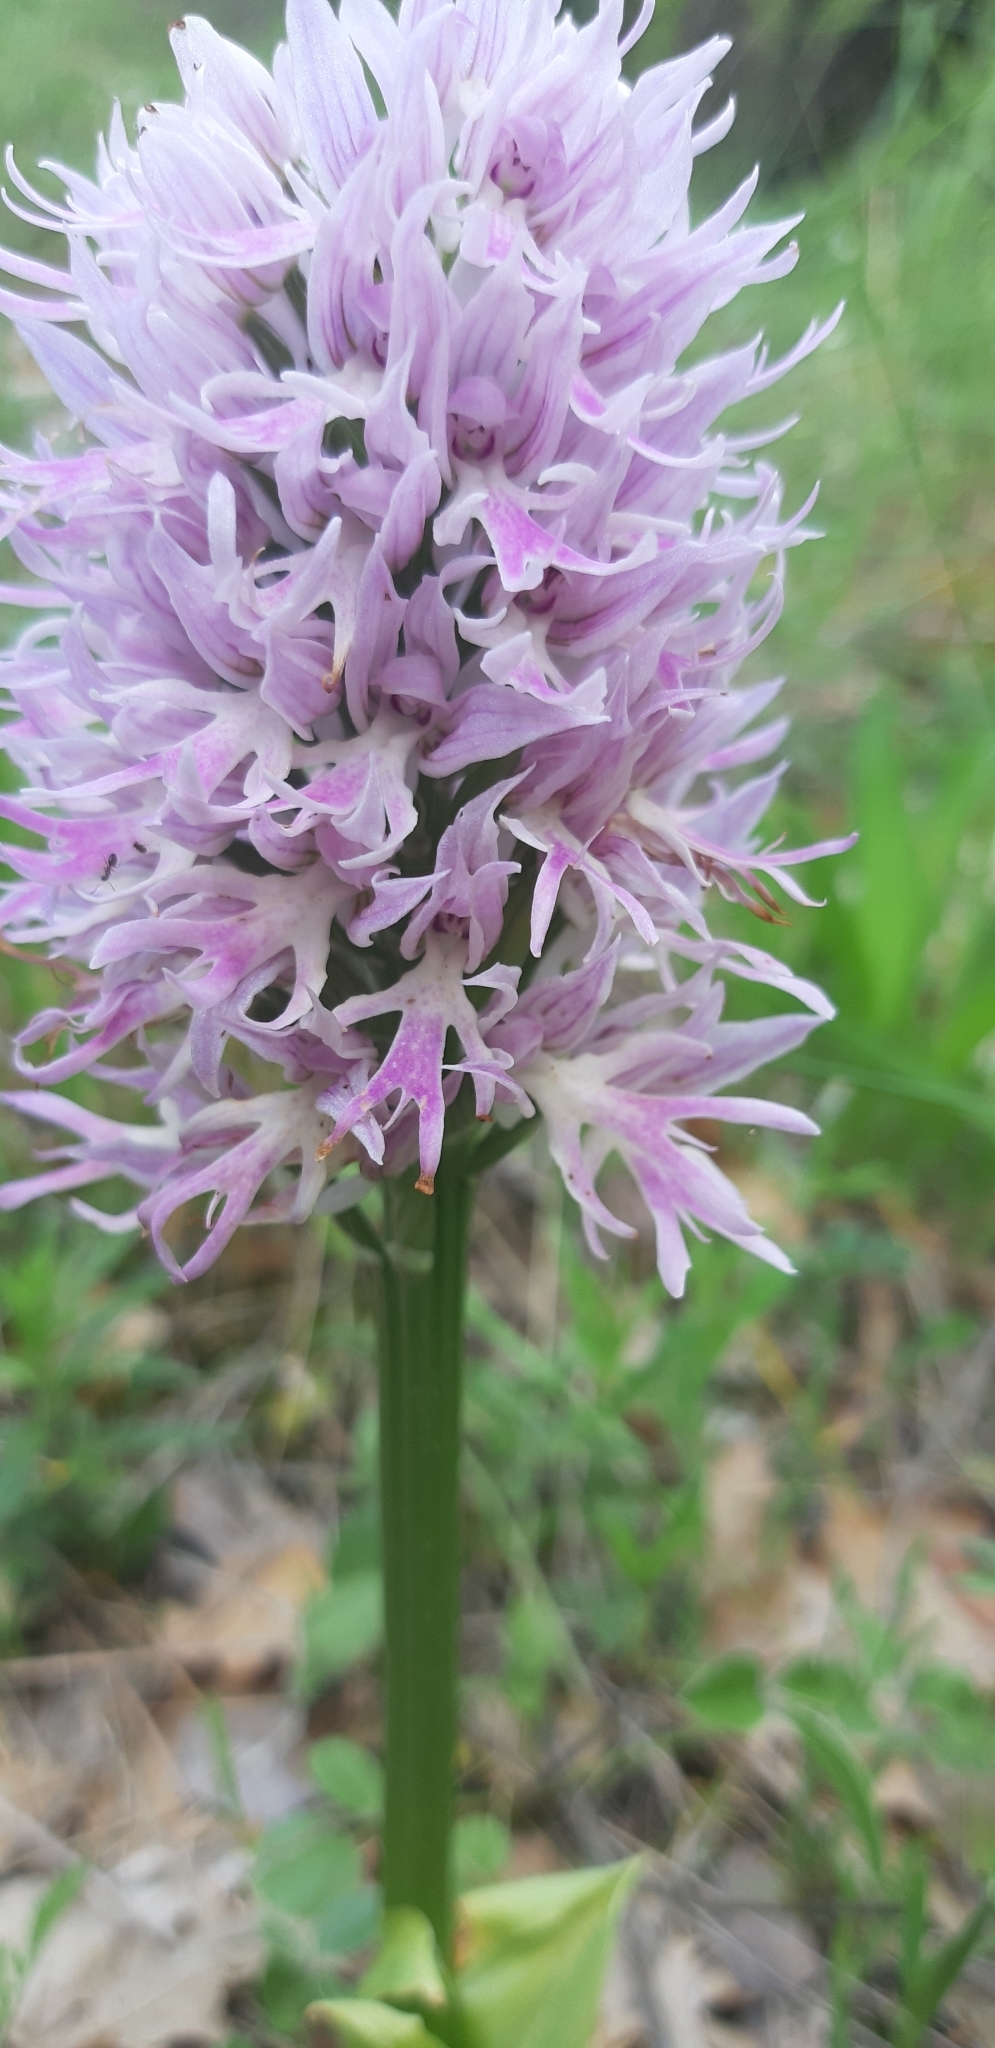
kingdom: Plantae
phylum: Tracheophyta
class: Liliopsida
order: Asparagales
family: Orchidaceae
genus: Orchis
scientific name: Orchis italica
